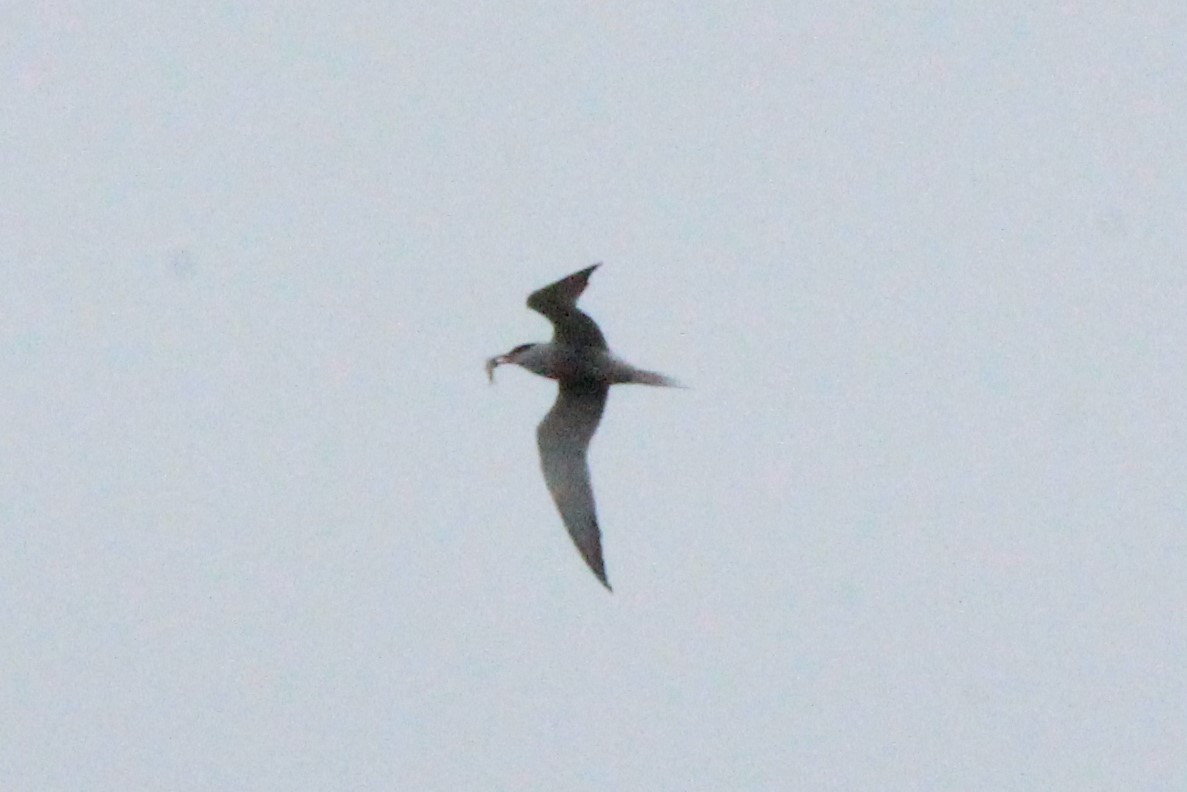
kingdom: Animalia
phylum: Chordata
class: Aves
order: Charadriiformes
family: Laridae
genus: Sterna
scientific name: Sterna hirundo
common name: Common tern
